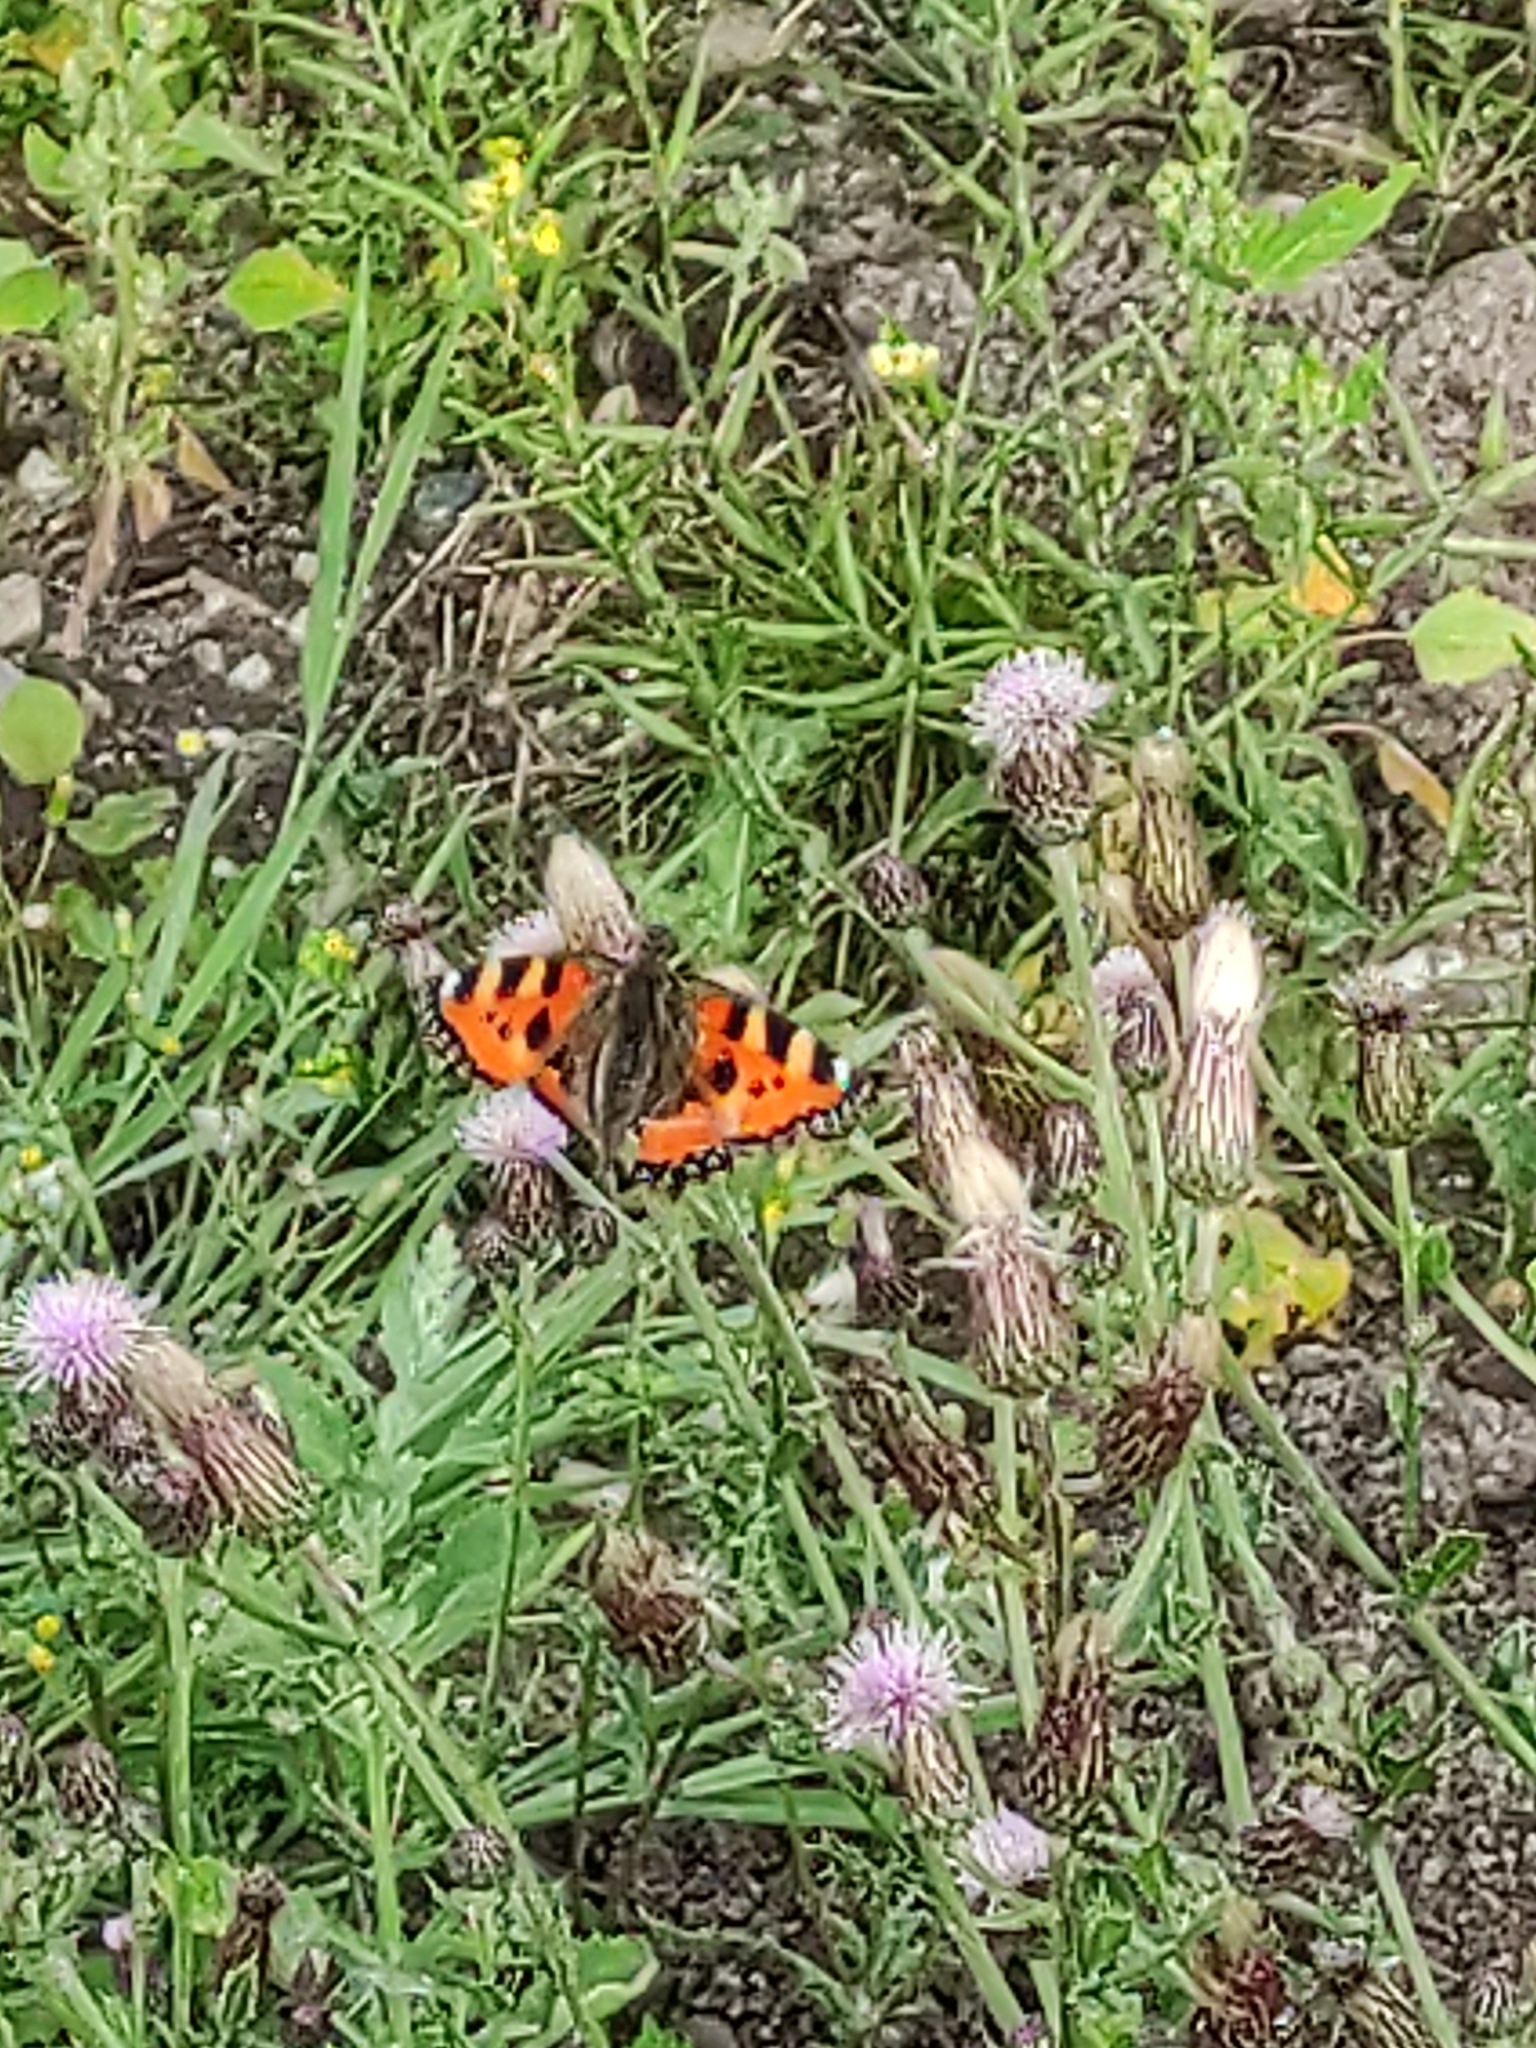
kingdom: Animalia
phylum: Arthropoda
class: Insecta
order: Lepidoptera
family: Nymphalidae
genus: Aglais
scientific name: Aglais urticae
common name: Small tortoiseshell
